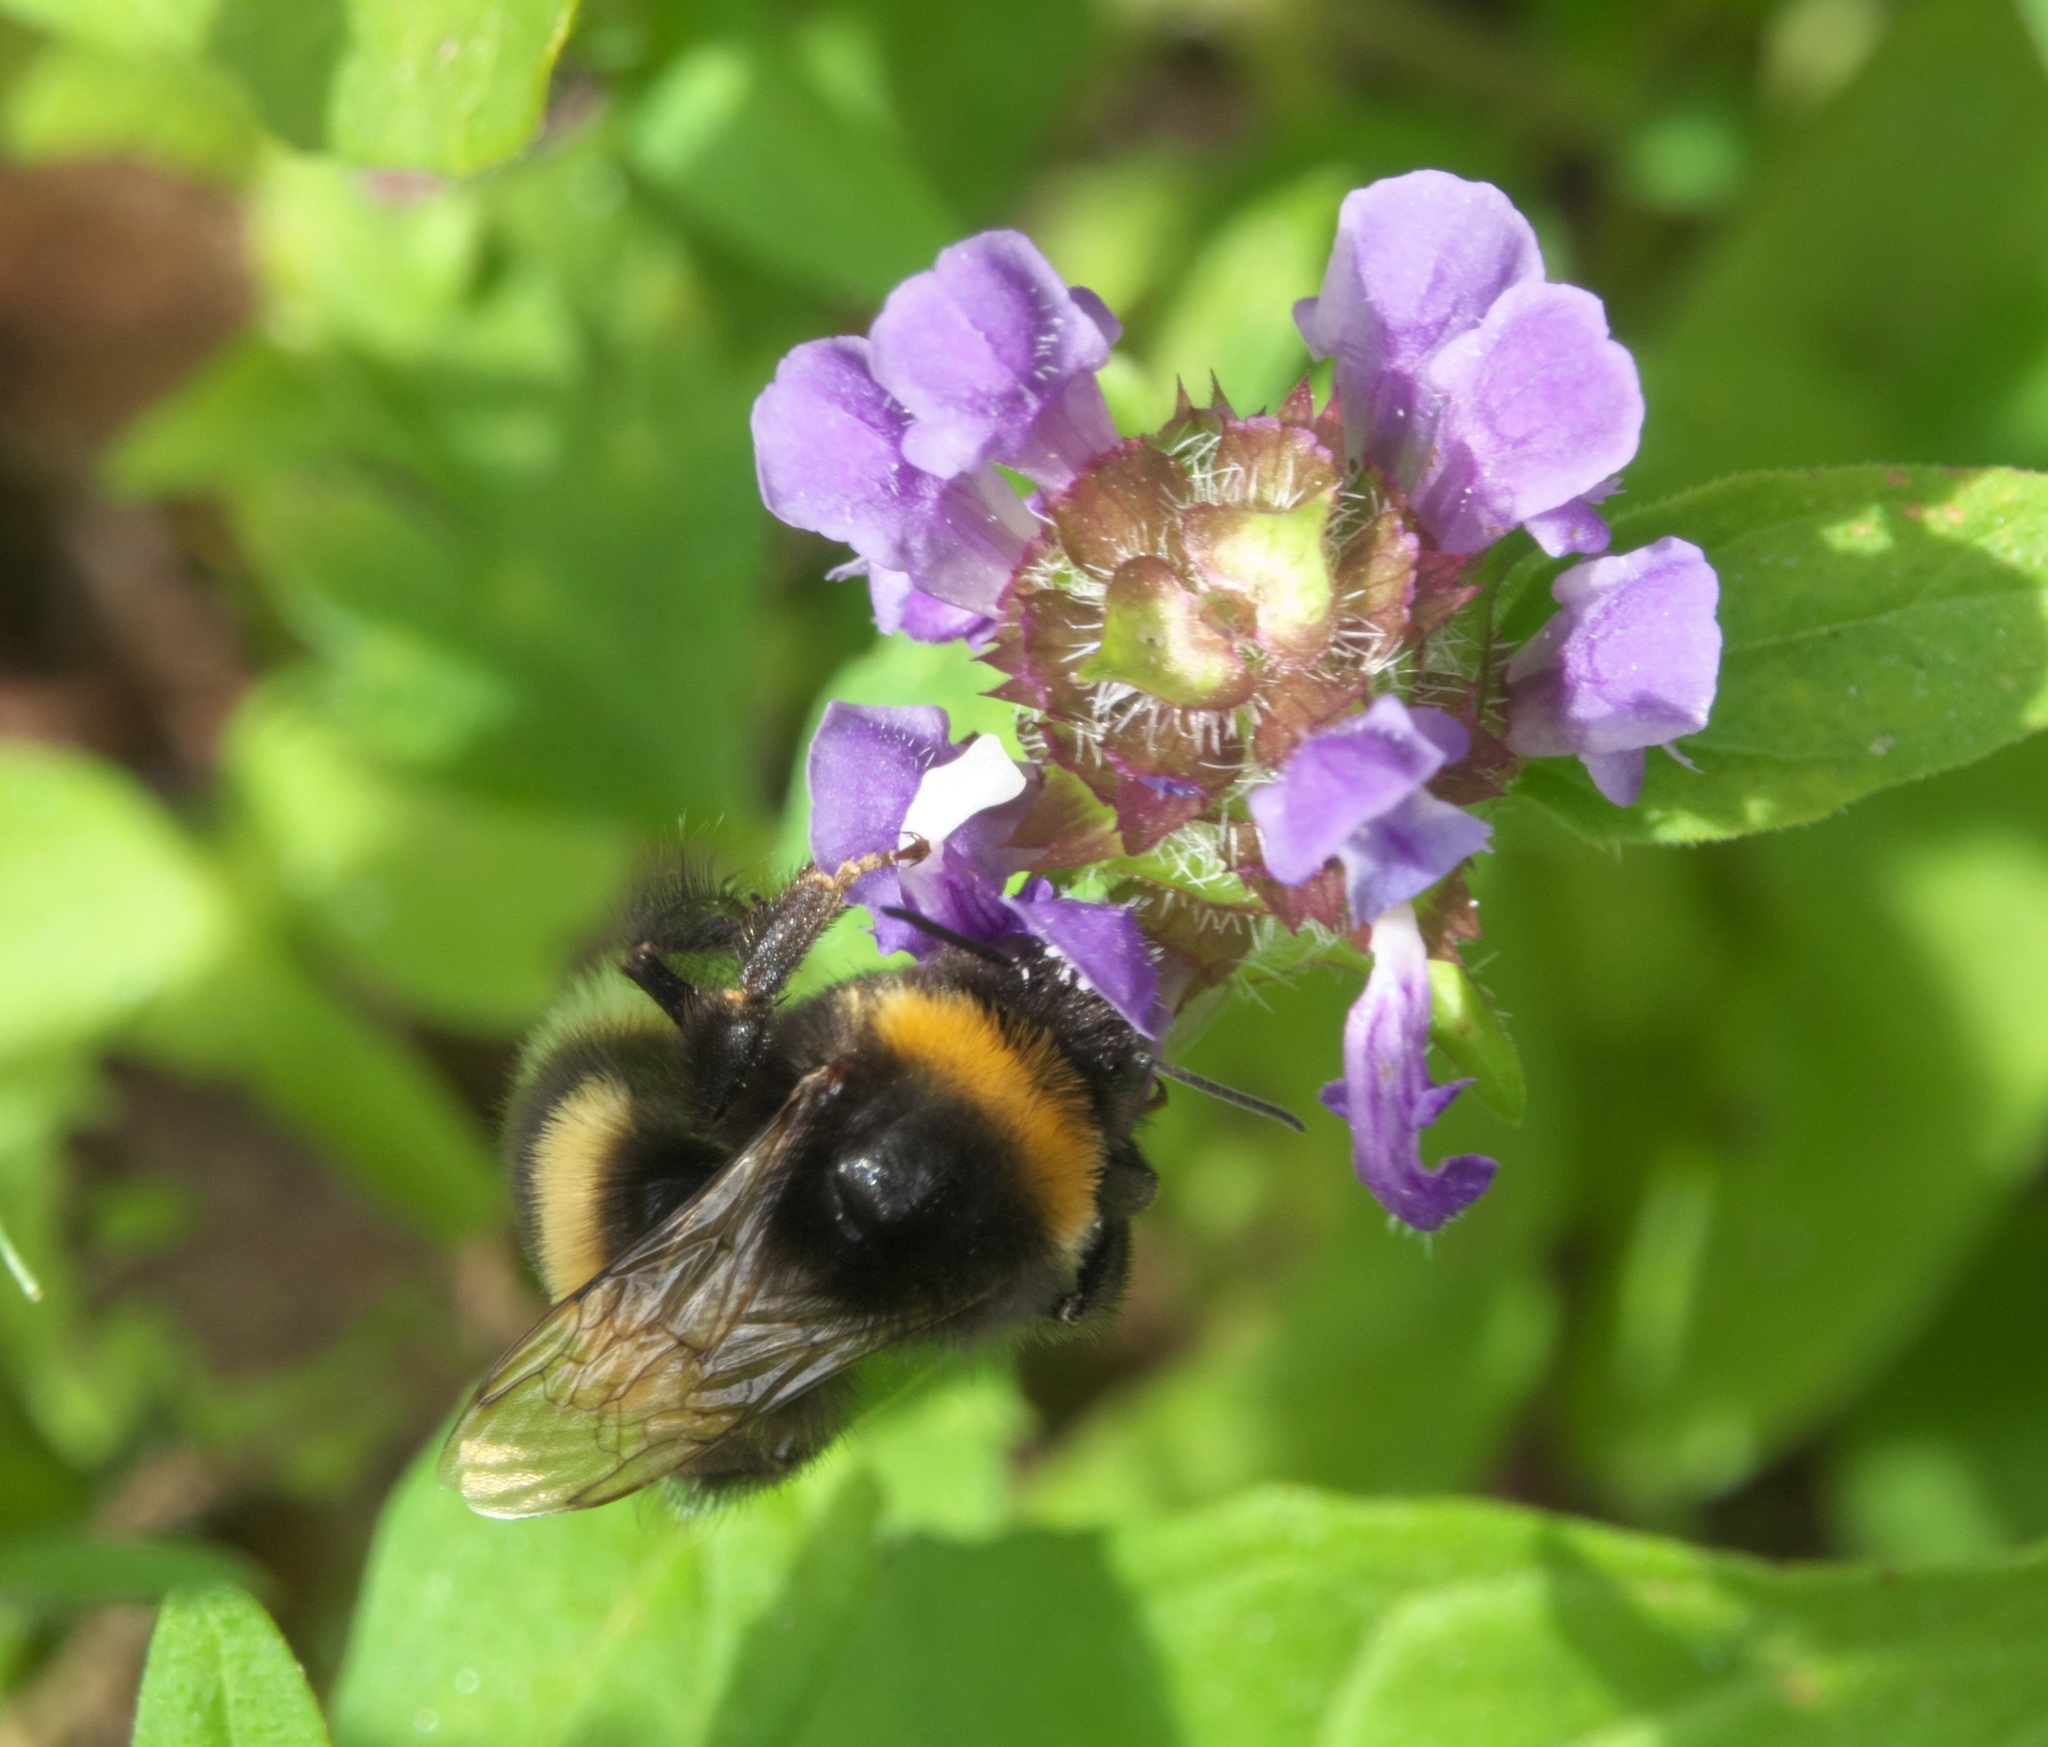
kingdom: Animalia
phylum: Arthropoda
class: Insecta
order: Hymenoptera
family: Apidae
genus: Bombus
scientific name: Bombus terrestris
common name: Buff-tailed bumblebee
